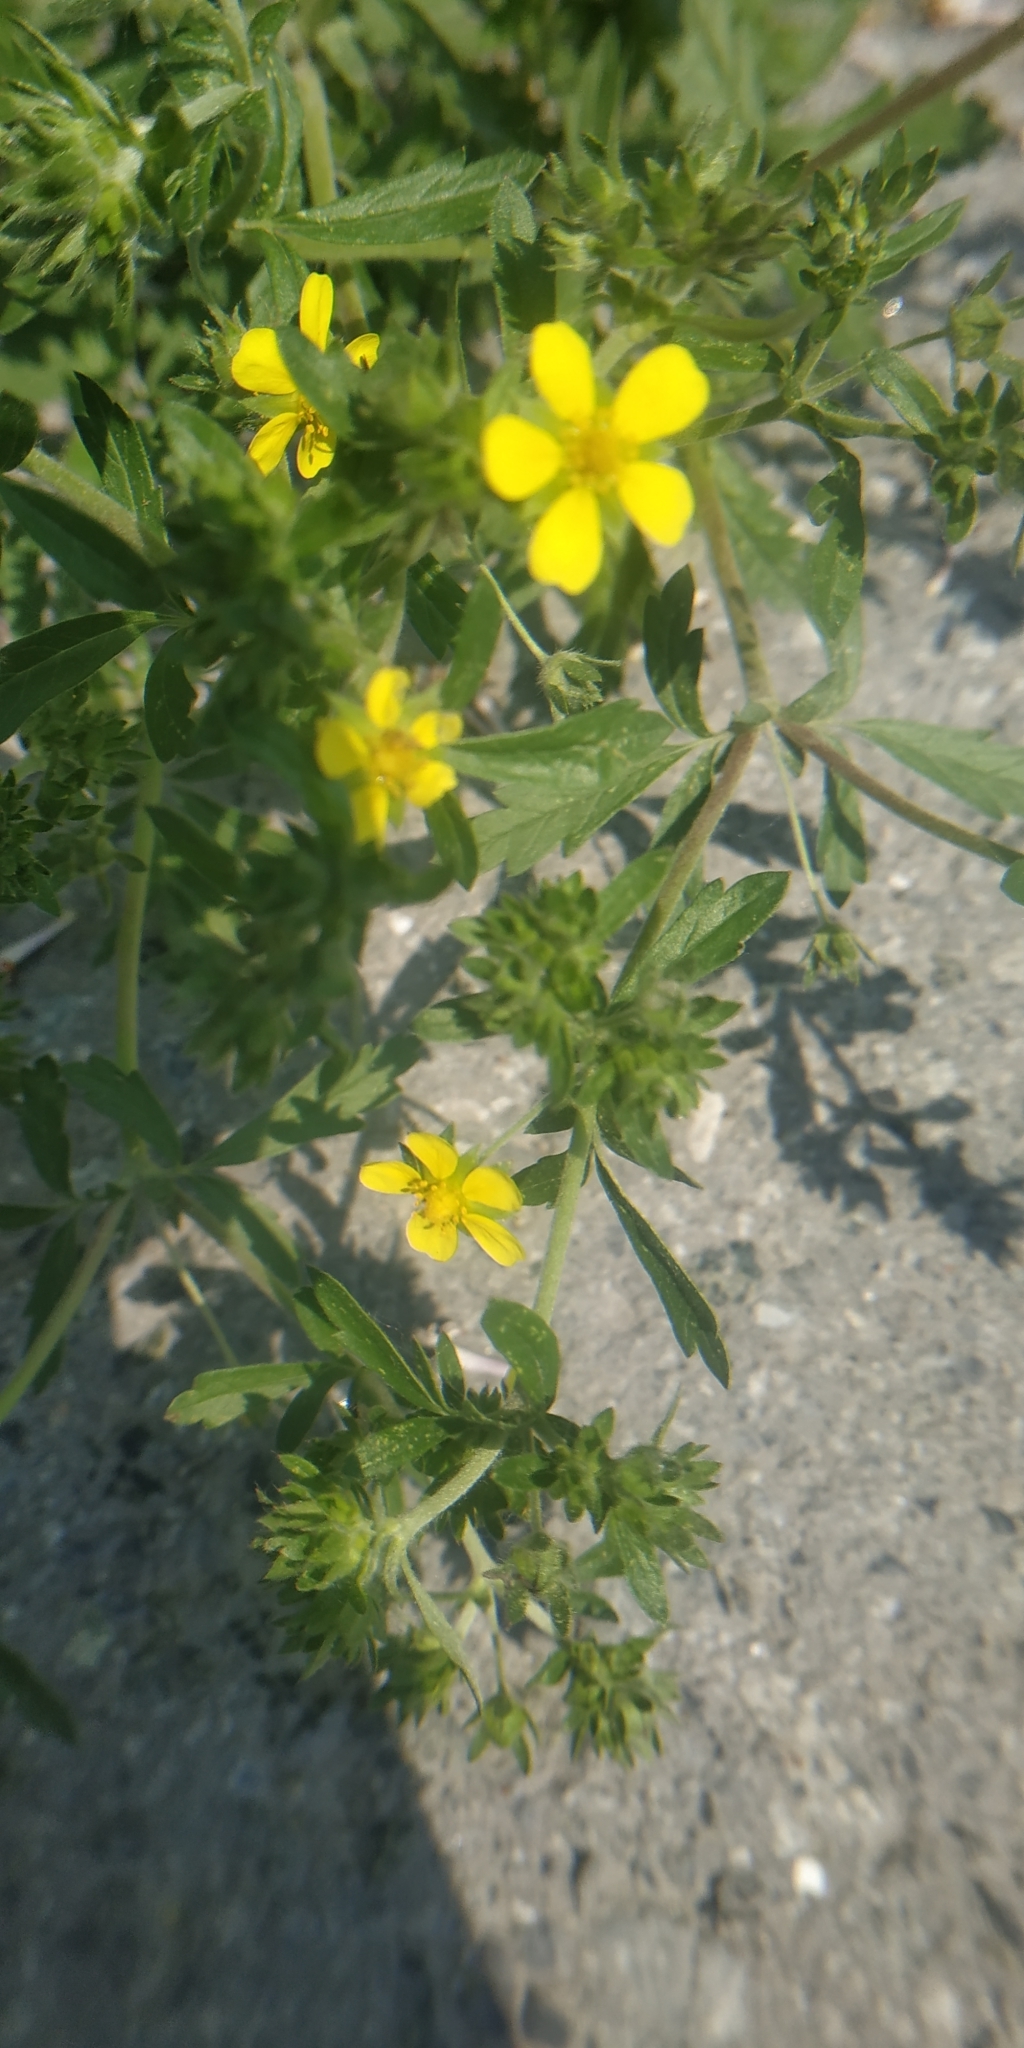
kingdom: Plantae
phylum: Tracheophyta
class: Magnoliopsida
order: Rosales
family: Rosaceae
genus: Potentilla
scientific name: Potentilla tobolensis
